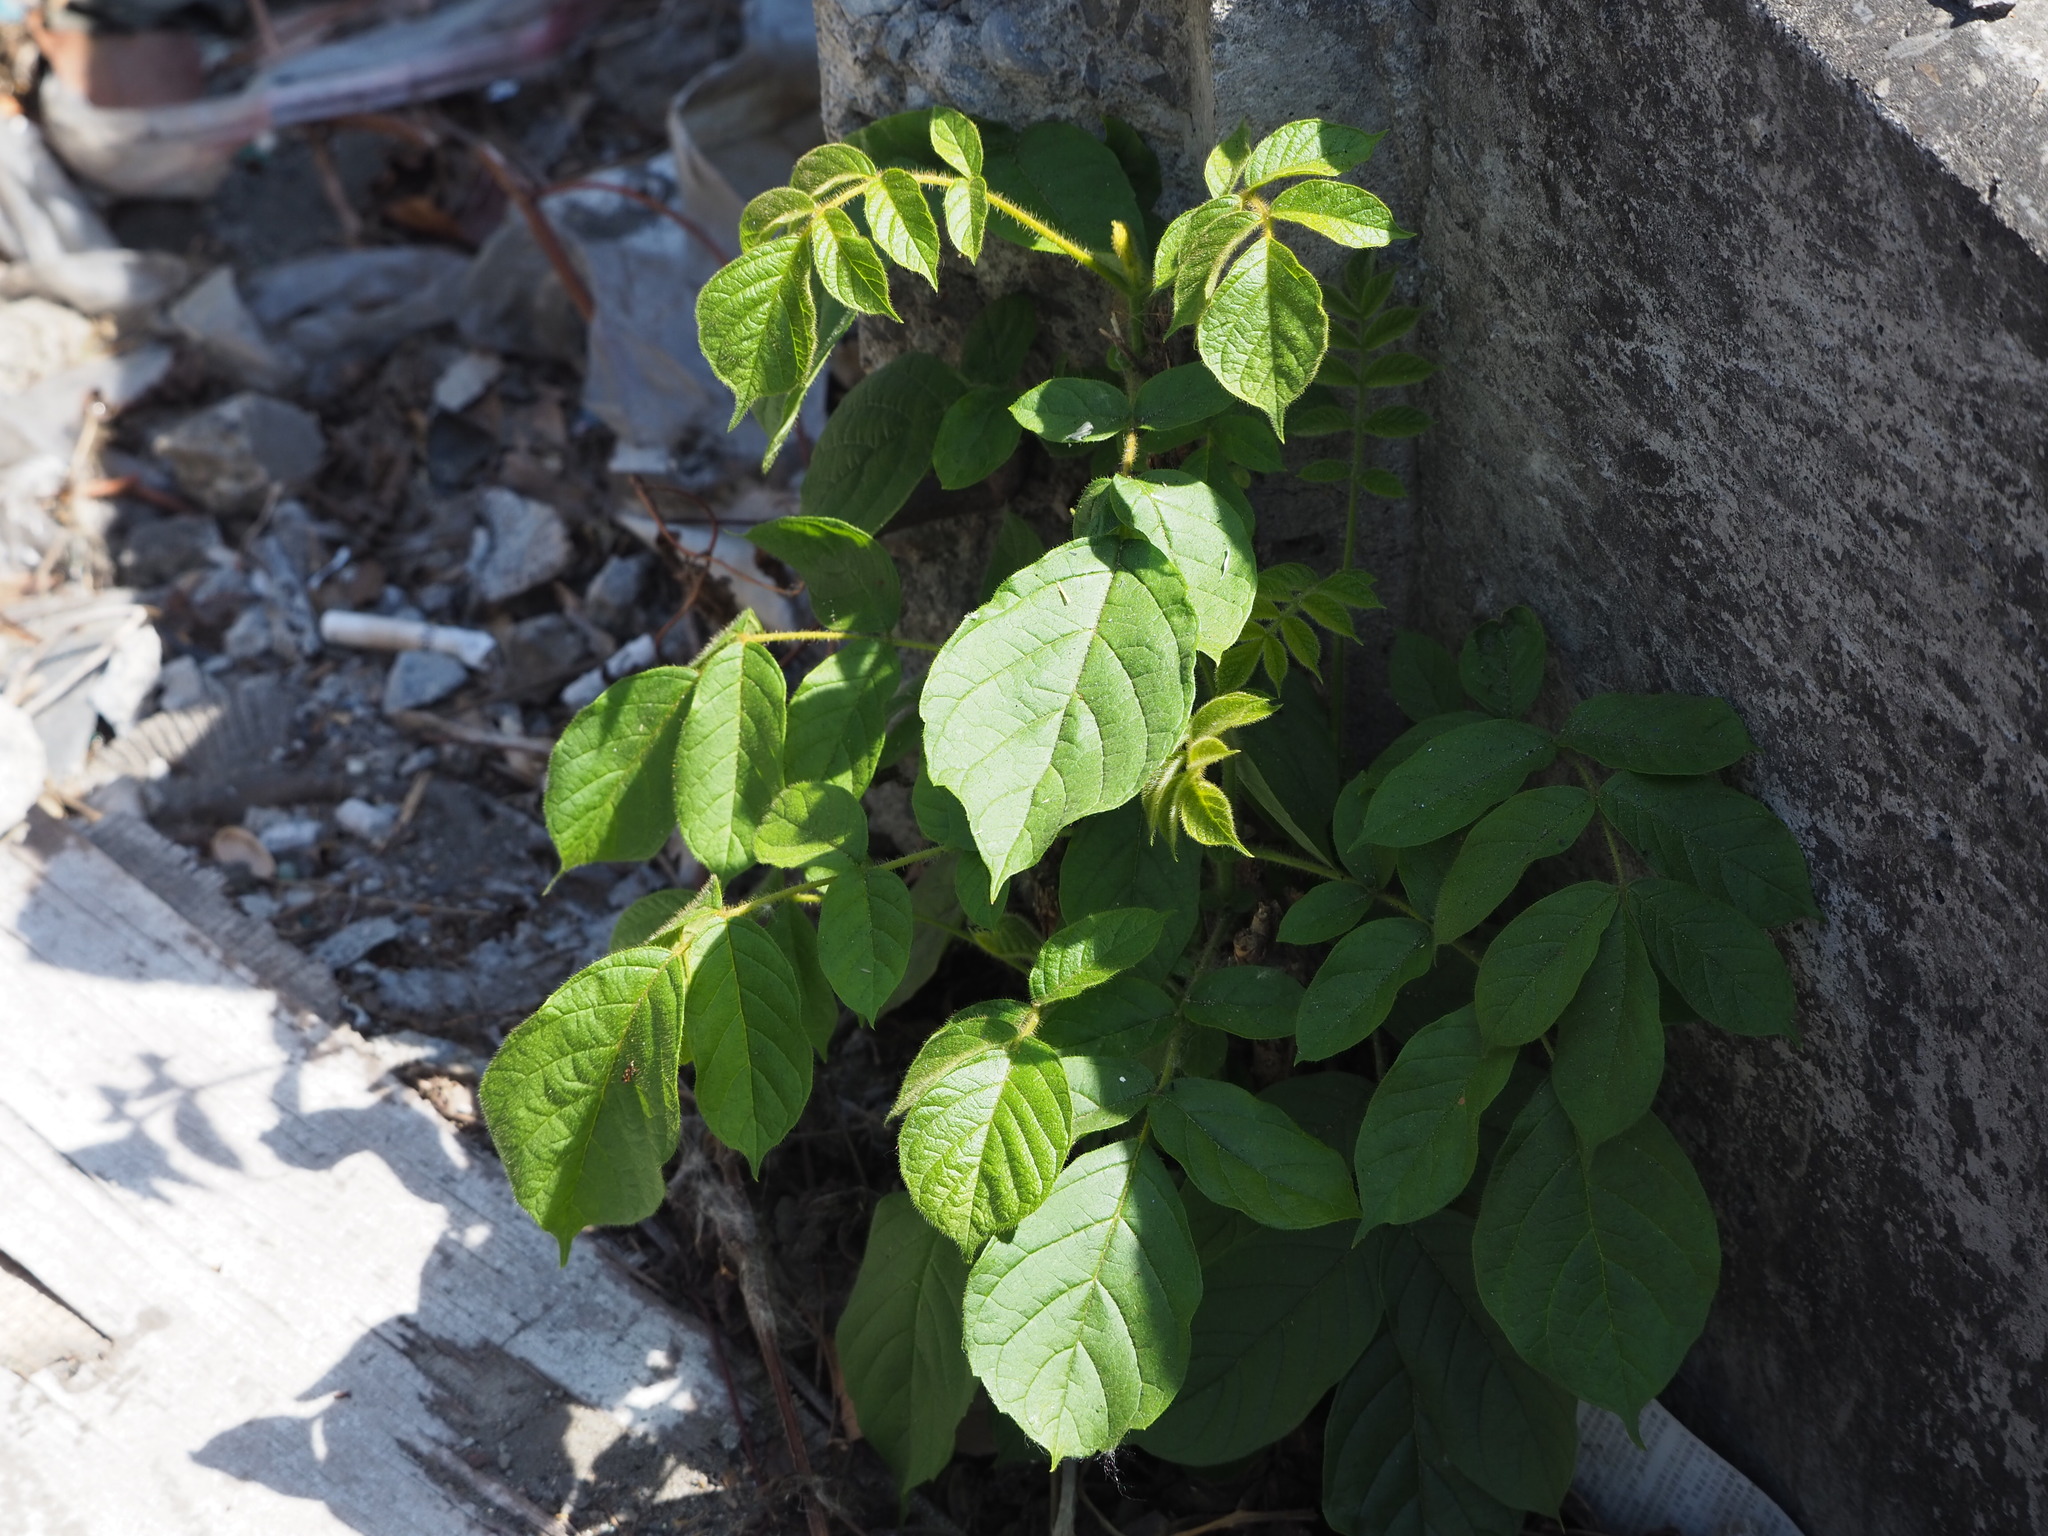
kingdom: Plantae
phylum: Tracheophyta
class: Magnoliopsida
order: Lamiales
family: Bignoniaceae
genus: Spathodea
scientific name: Spathodea campanulata
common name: African tuliptree
